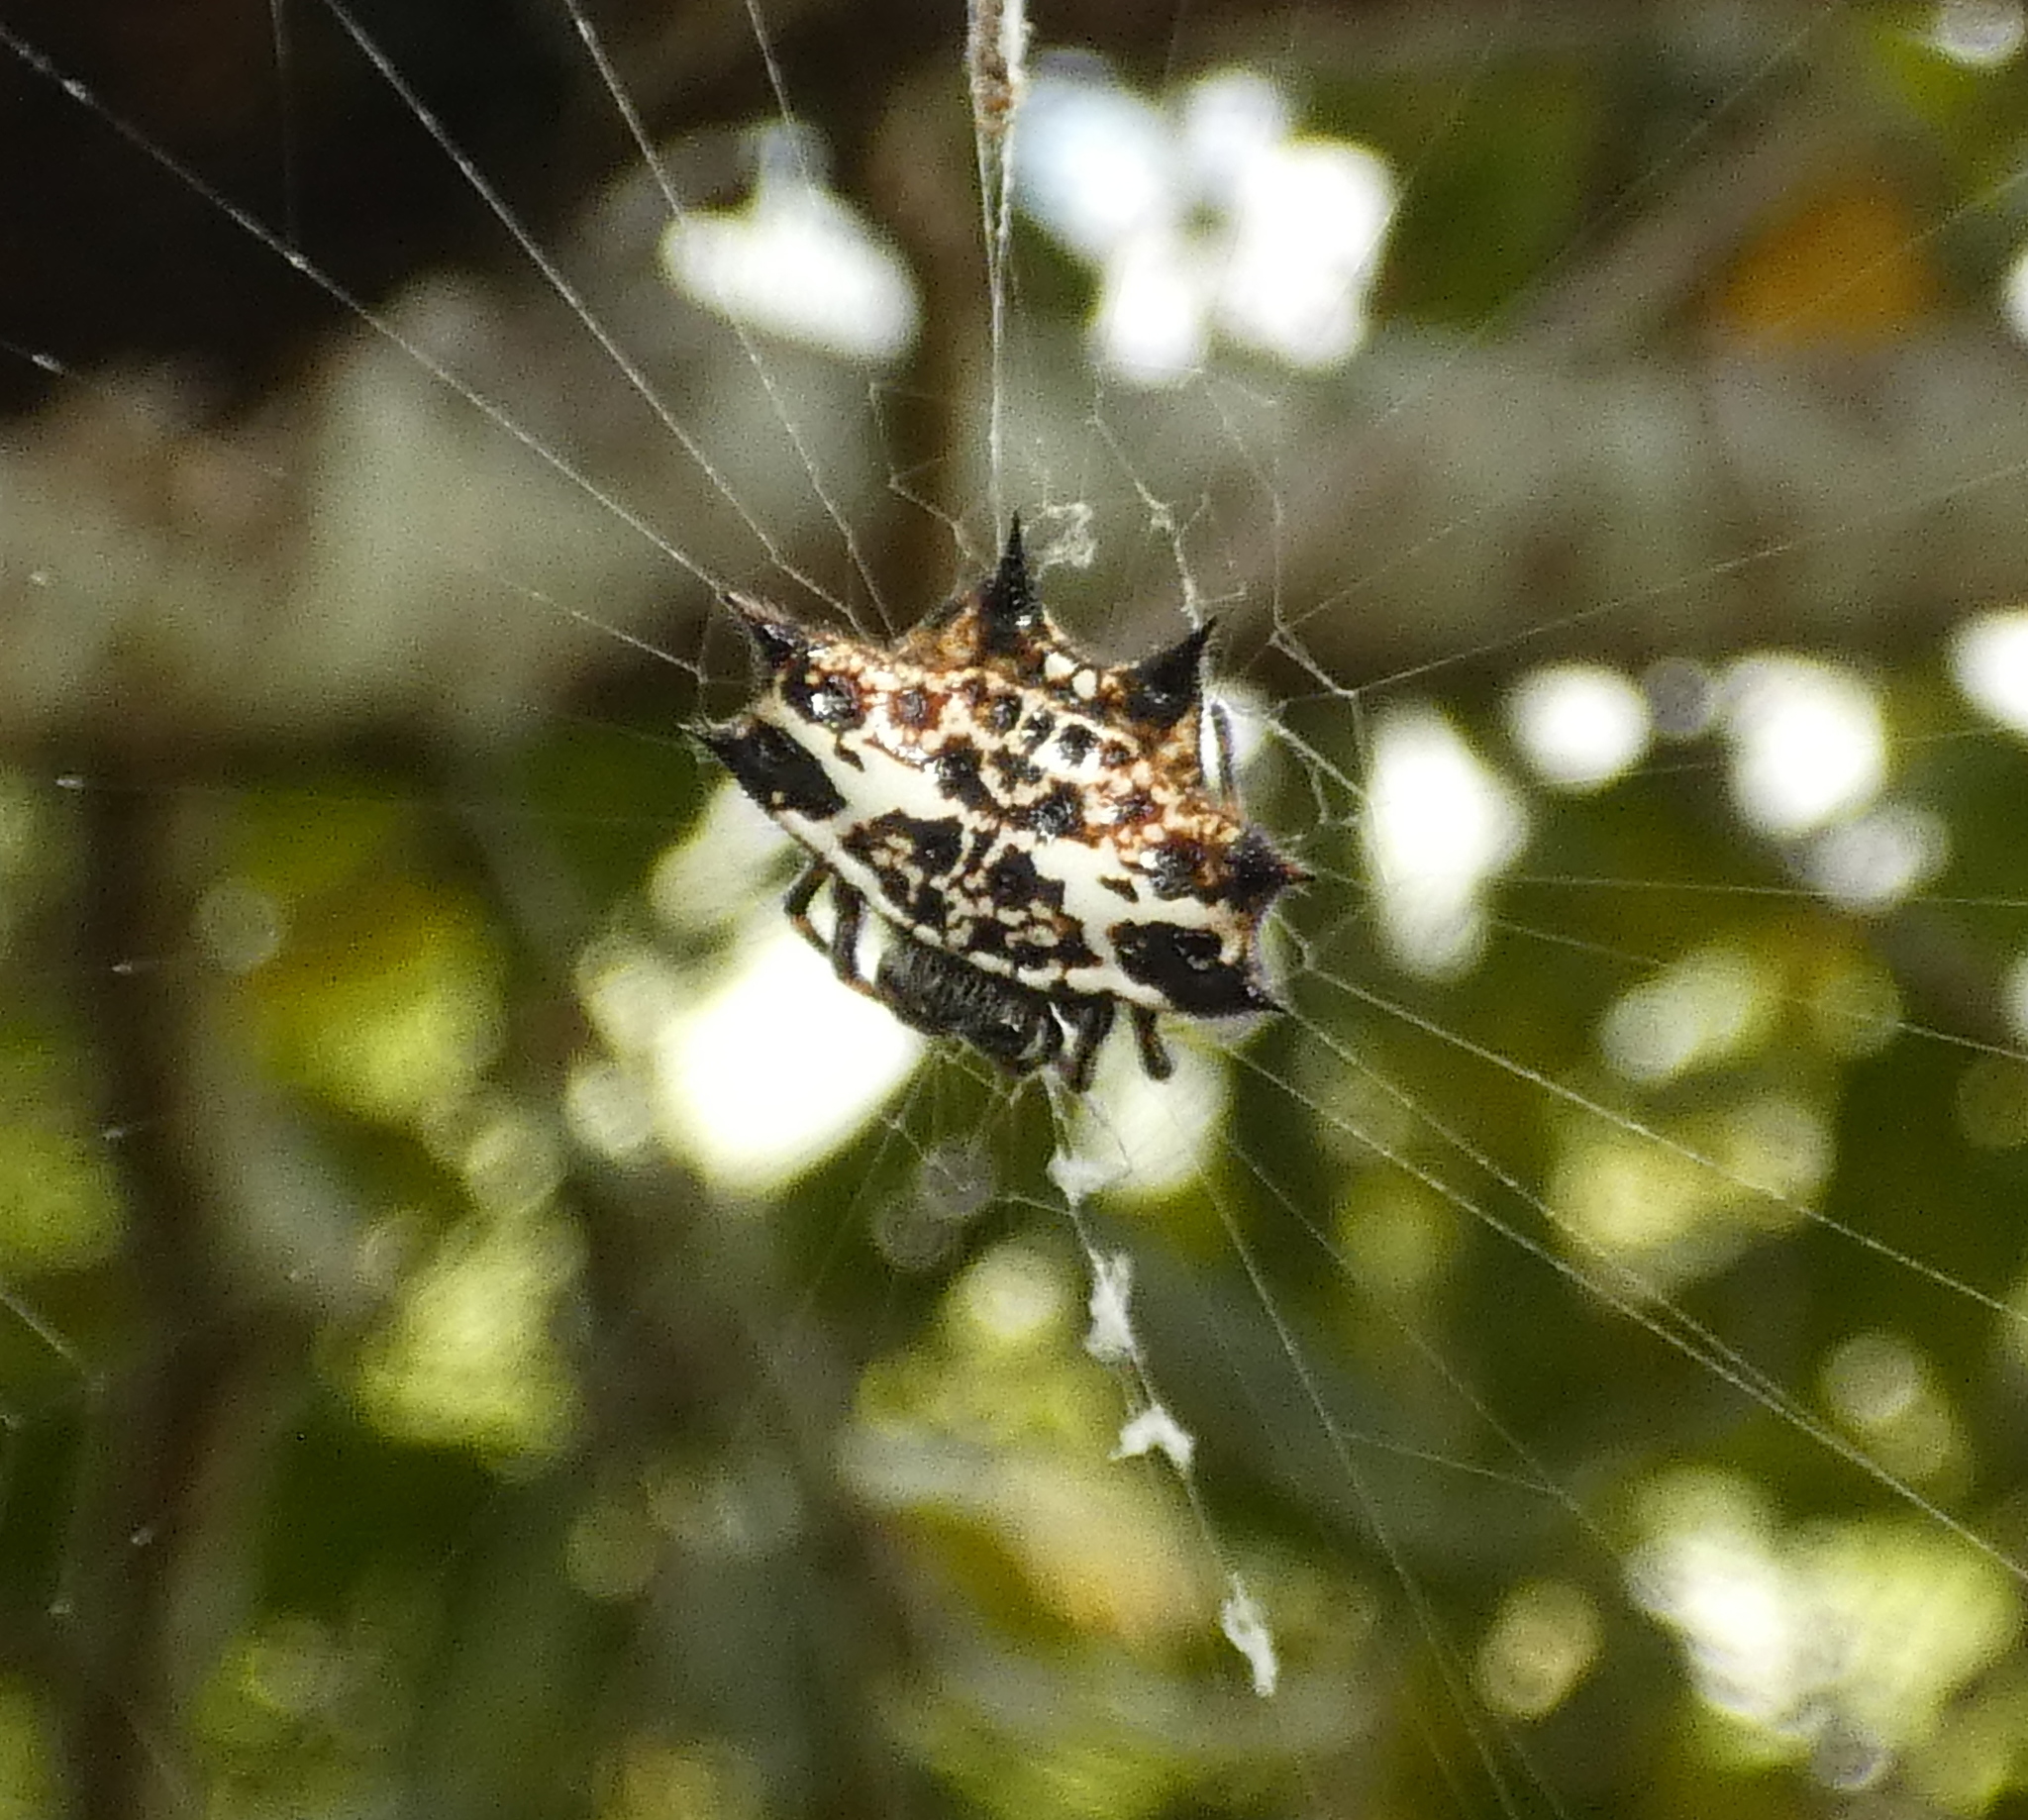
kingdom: Animalia
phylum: Arthropoda
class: Arachnida
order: Araneae
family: Araneidae
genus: Gasteracantha
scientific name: Gasteracantha cancriformis
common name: Orb weavers
